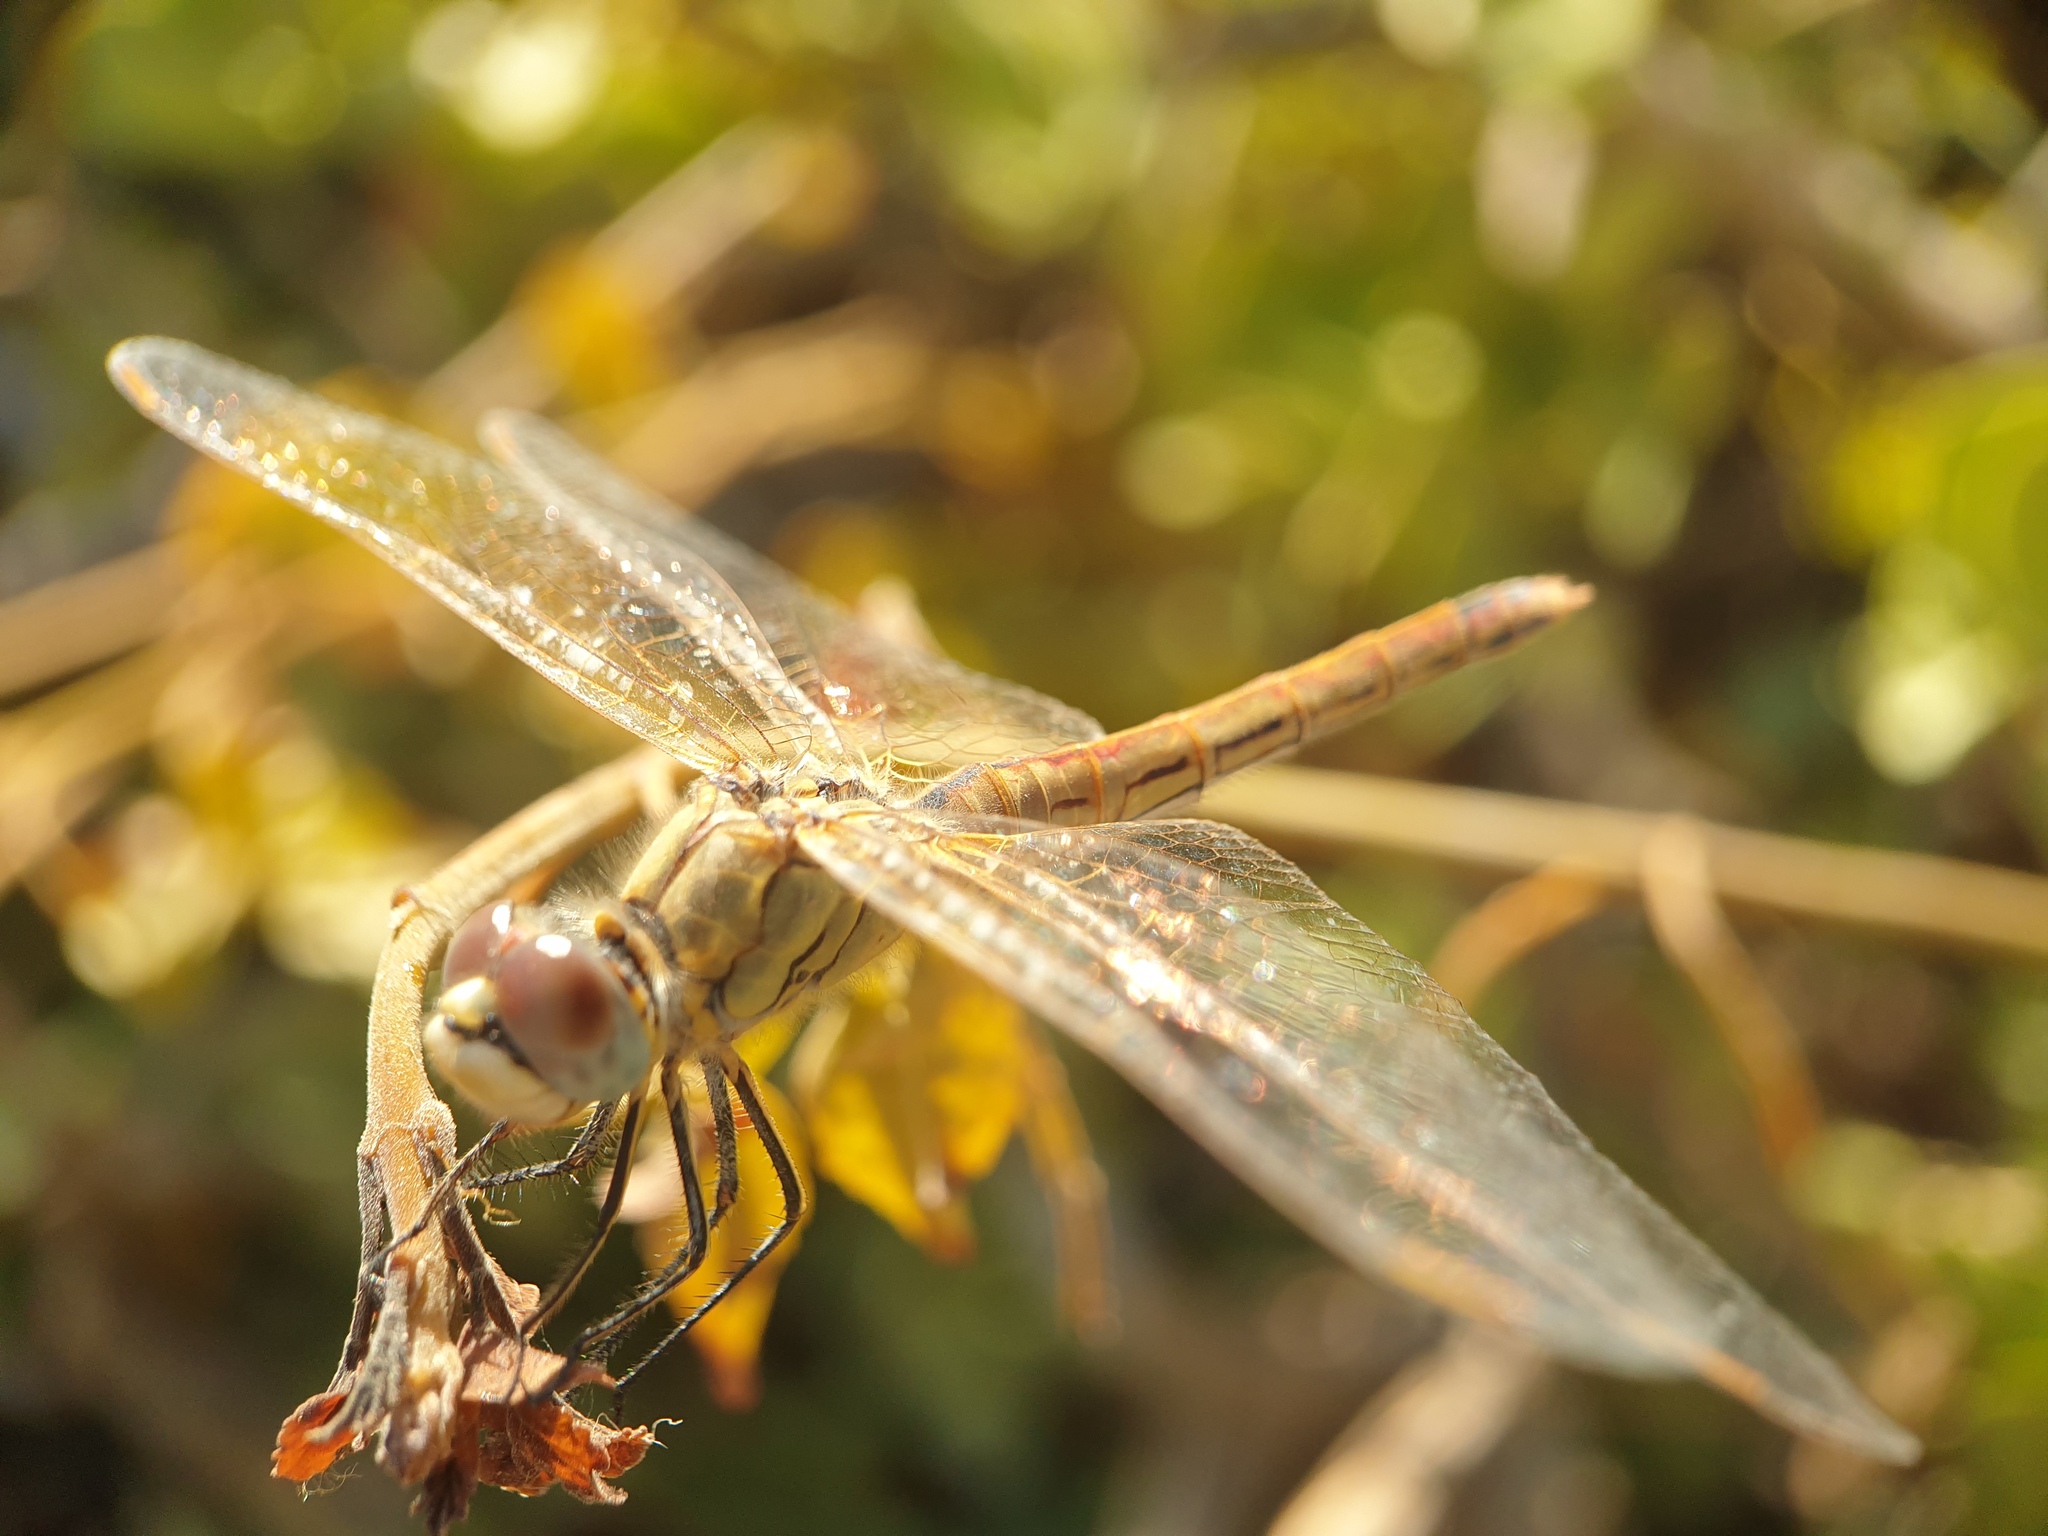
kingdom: Animalia
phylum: Arthropoda
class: Insecta
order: Odonata
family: Libellulidae
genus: Sympetrum
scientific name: Sympetrum fonscolombii
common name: Red-veined darter
